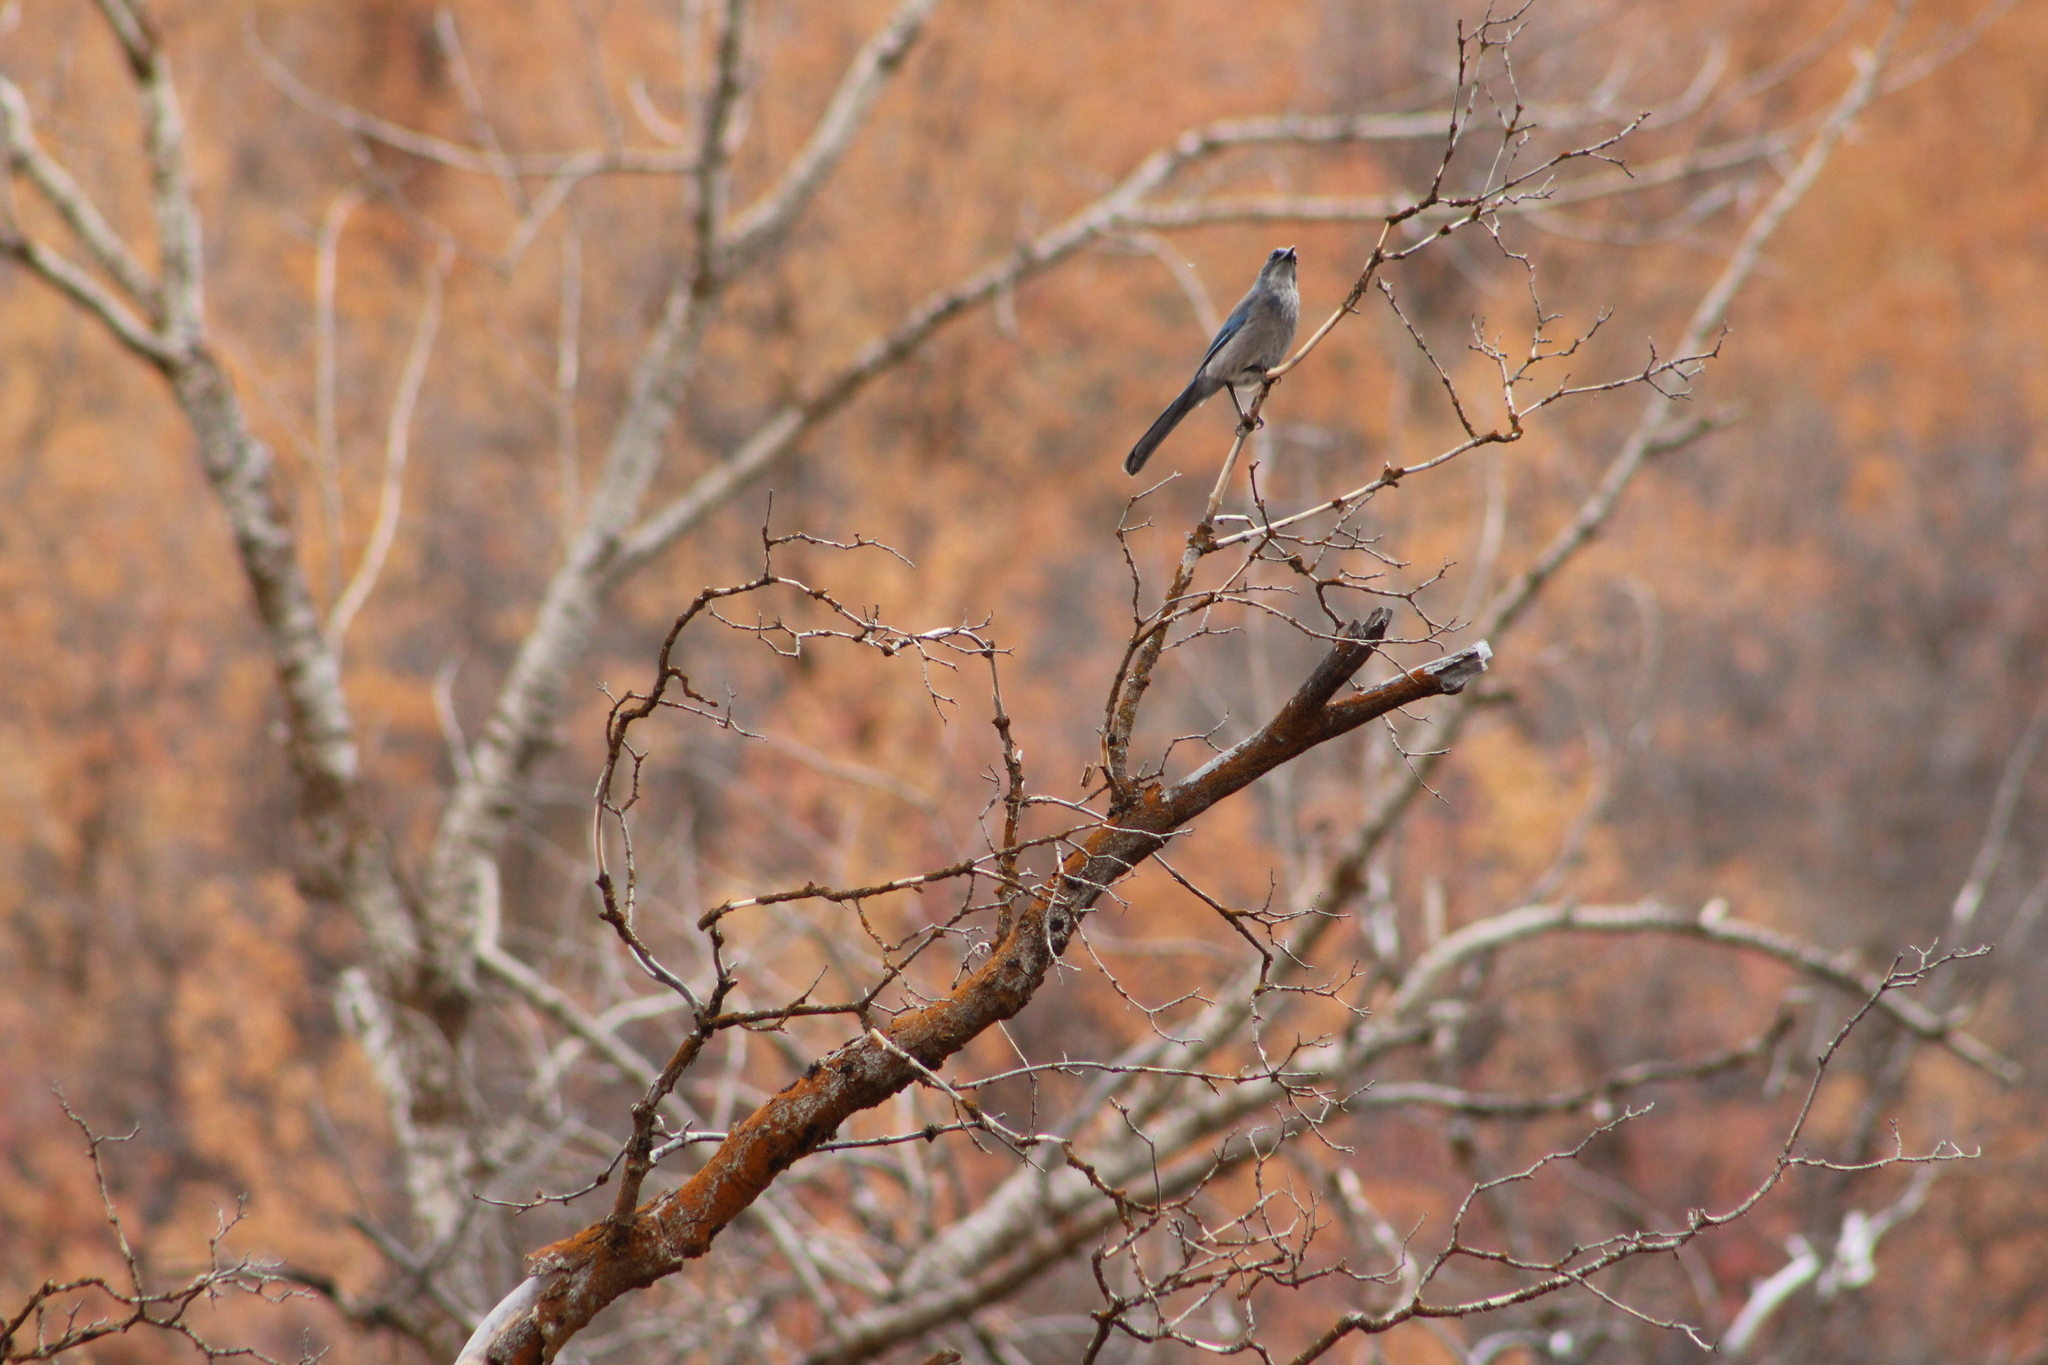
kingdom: Animalia
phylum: Chordata
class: Aves
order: Passeriformes
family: Corvidae
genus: Aphelocoma
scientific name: Aphelocoma woodhouseii
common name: Woodhouse's scrub-jay
